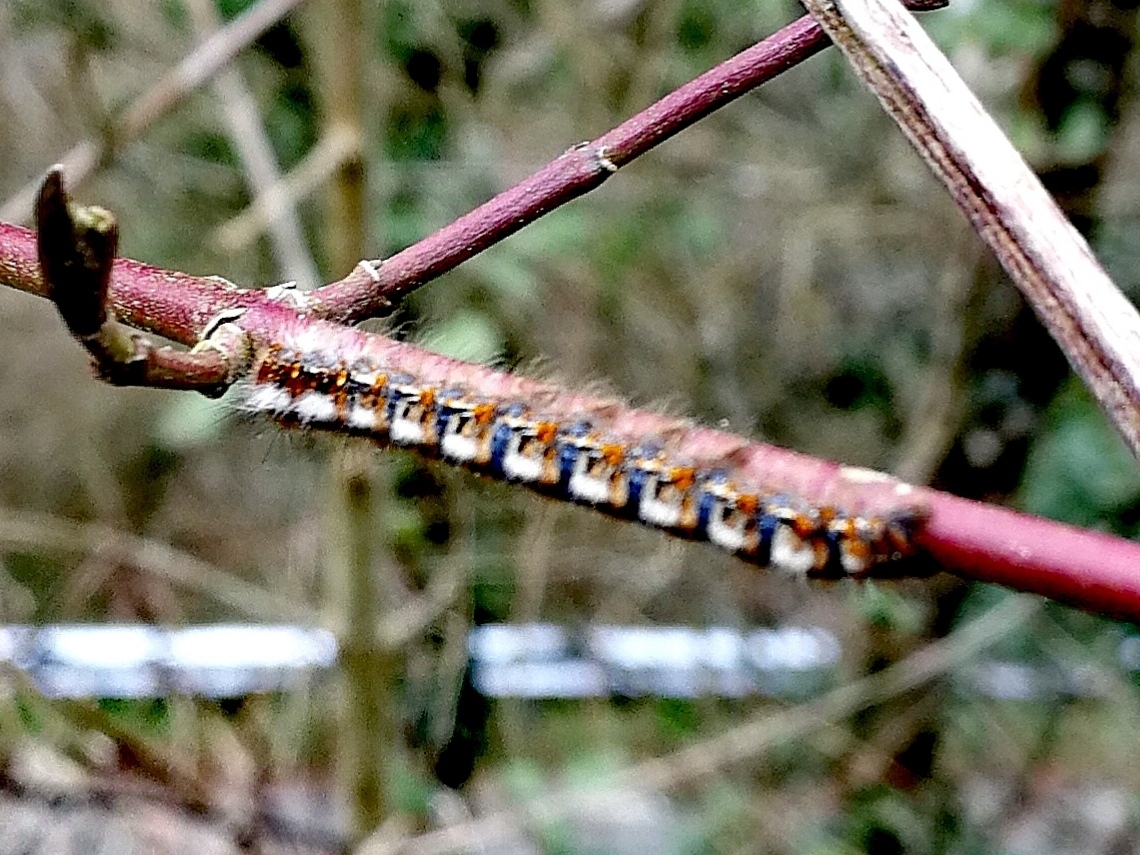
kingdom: Animalia
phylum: Arthropoda
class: Insecta
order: Lepidoptera
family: Lasiocampidae
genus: Lasiocampa
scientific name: Lasiocampa quercus
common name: Oak eggar
